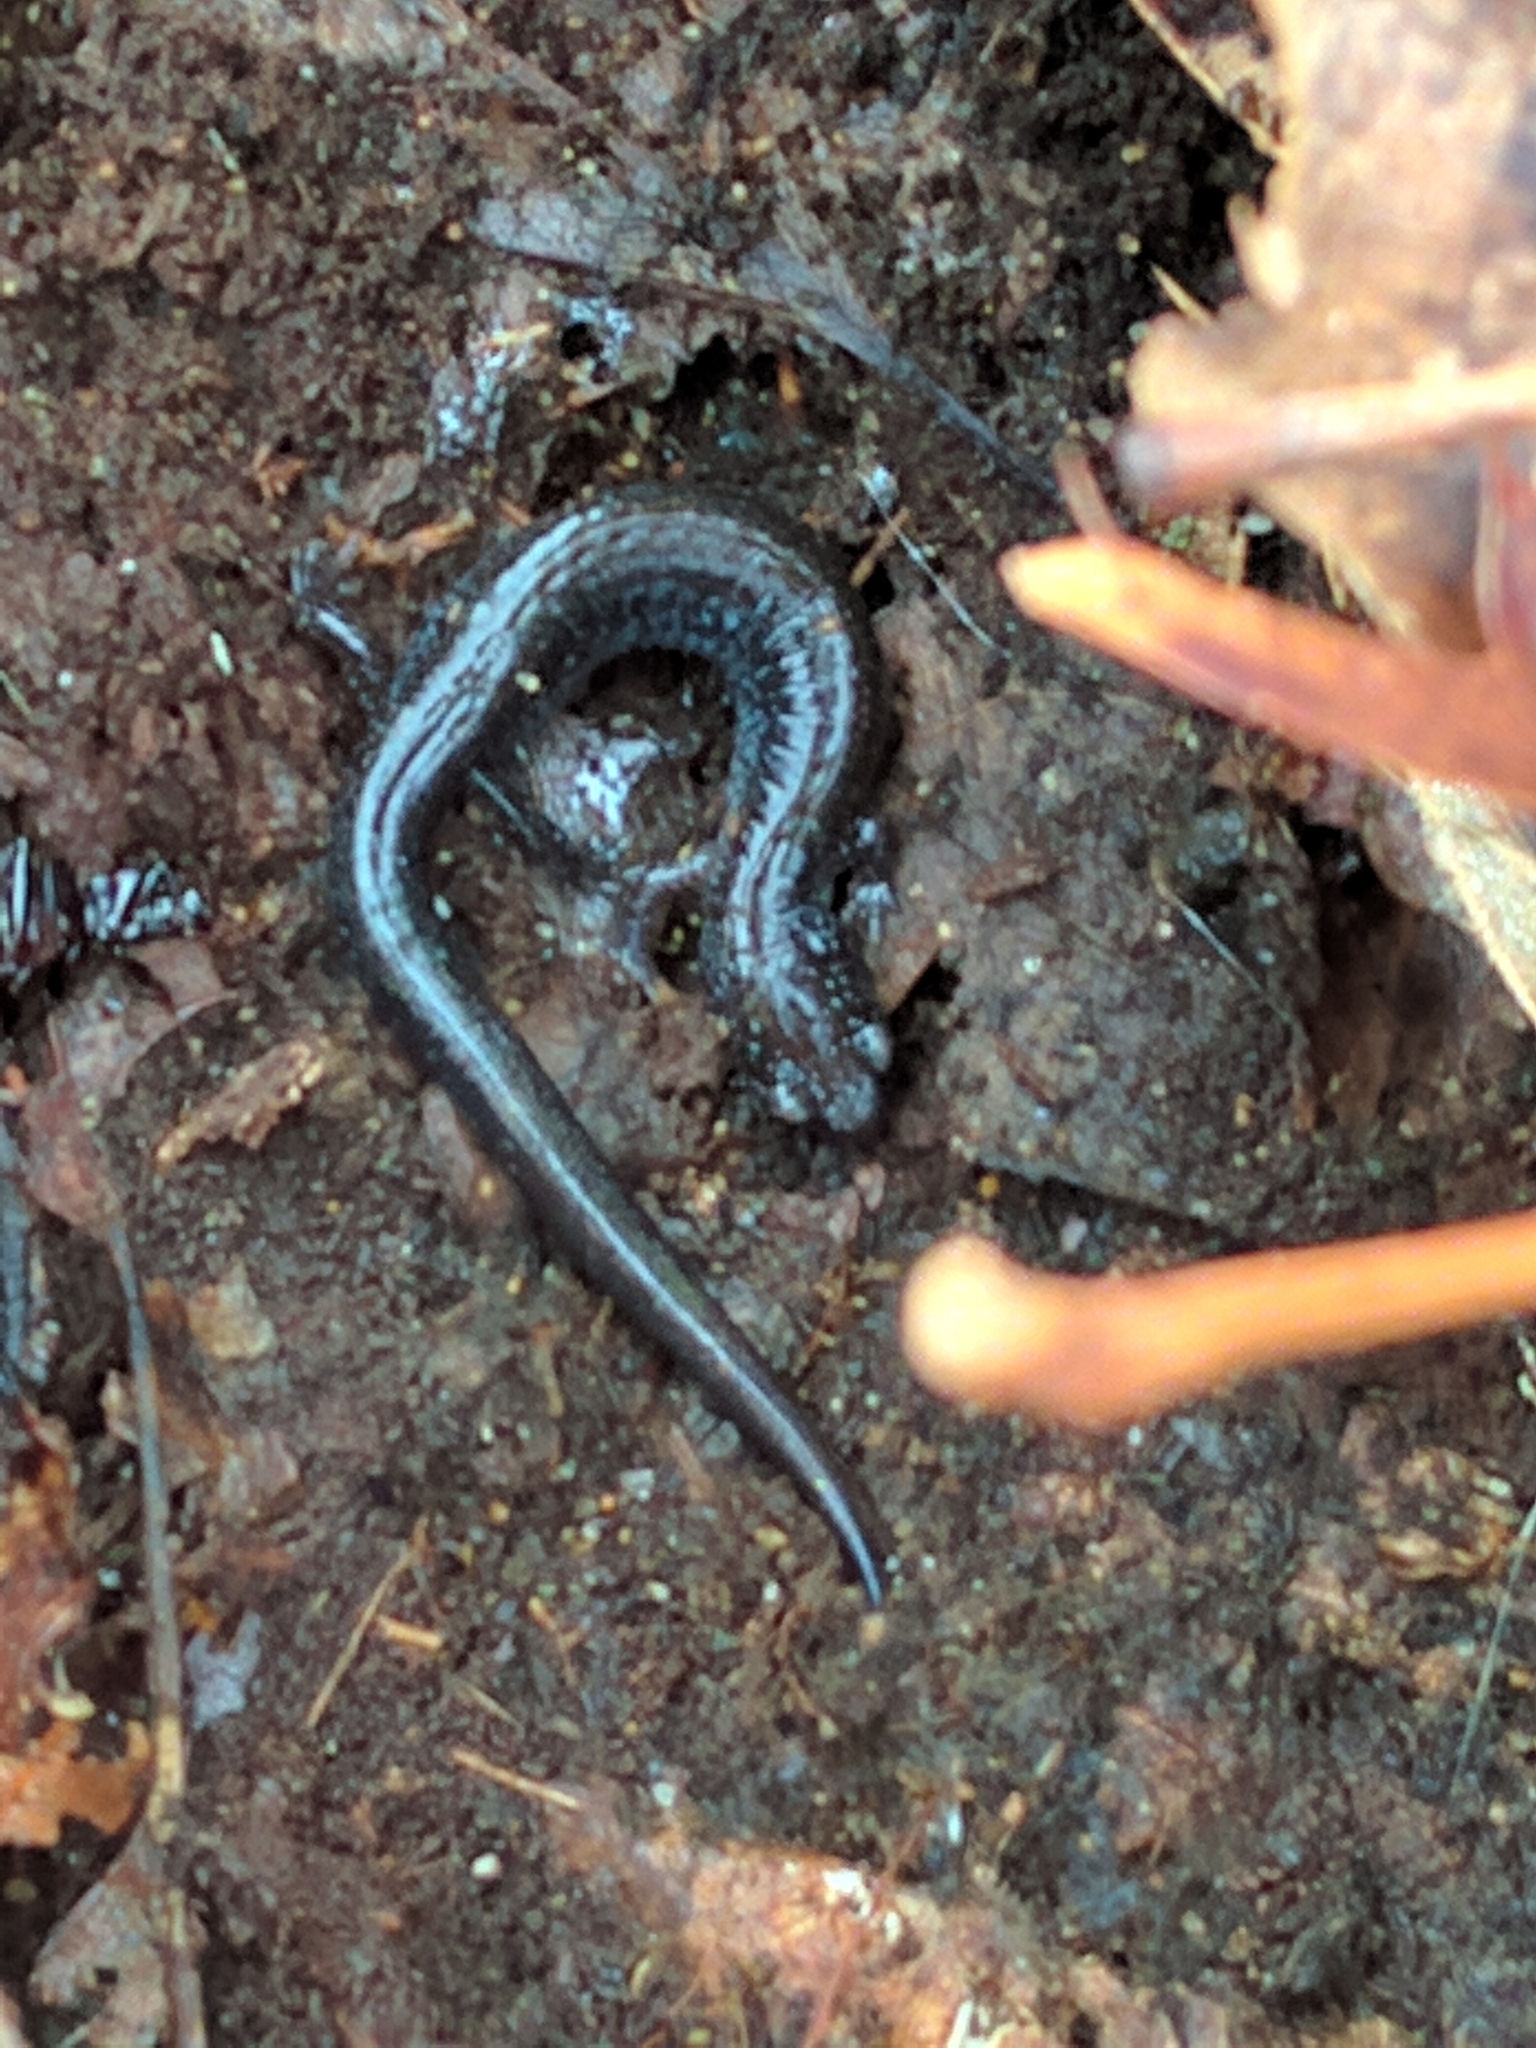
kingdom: Animalia
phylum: Chordata
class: Amphibia
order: Caudata
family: Plethodontidae
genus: Plethodon
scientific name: Plethodon cinereus
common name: Redback salamander
